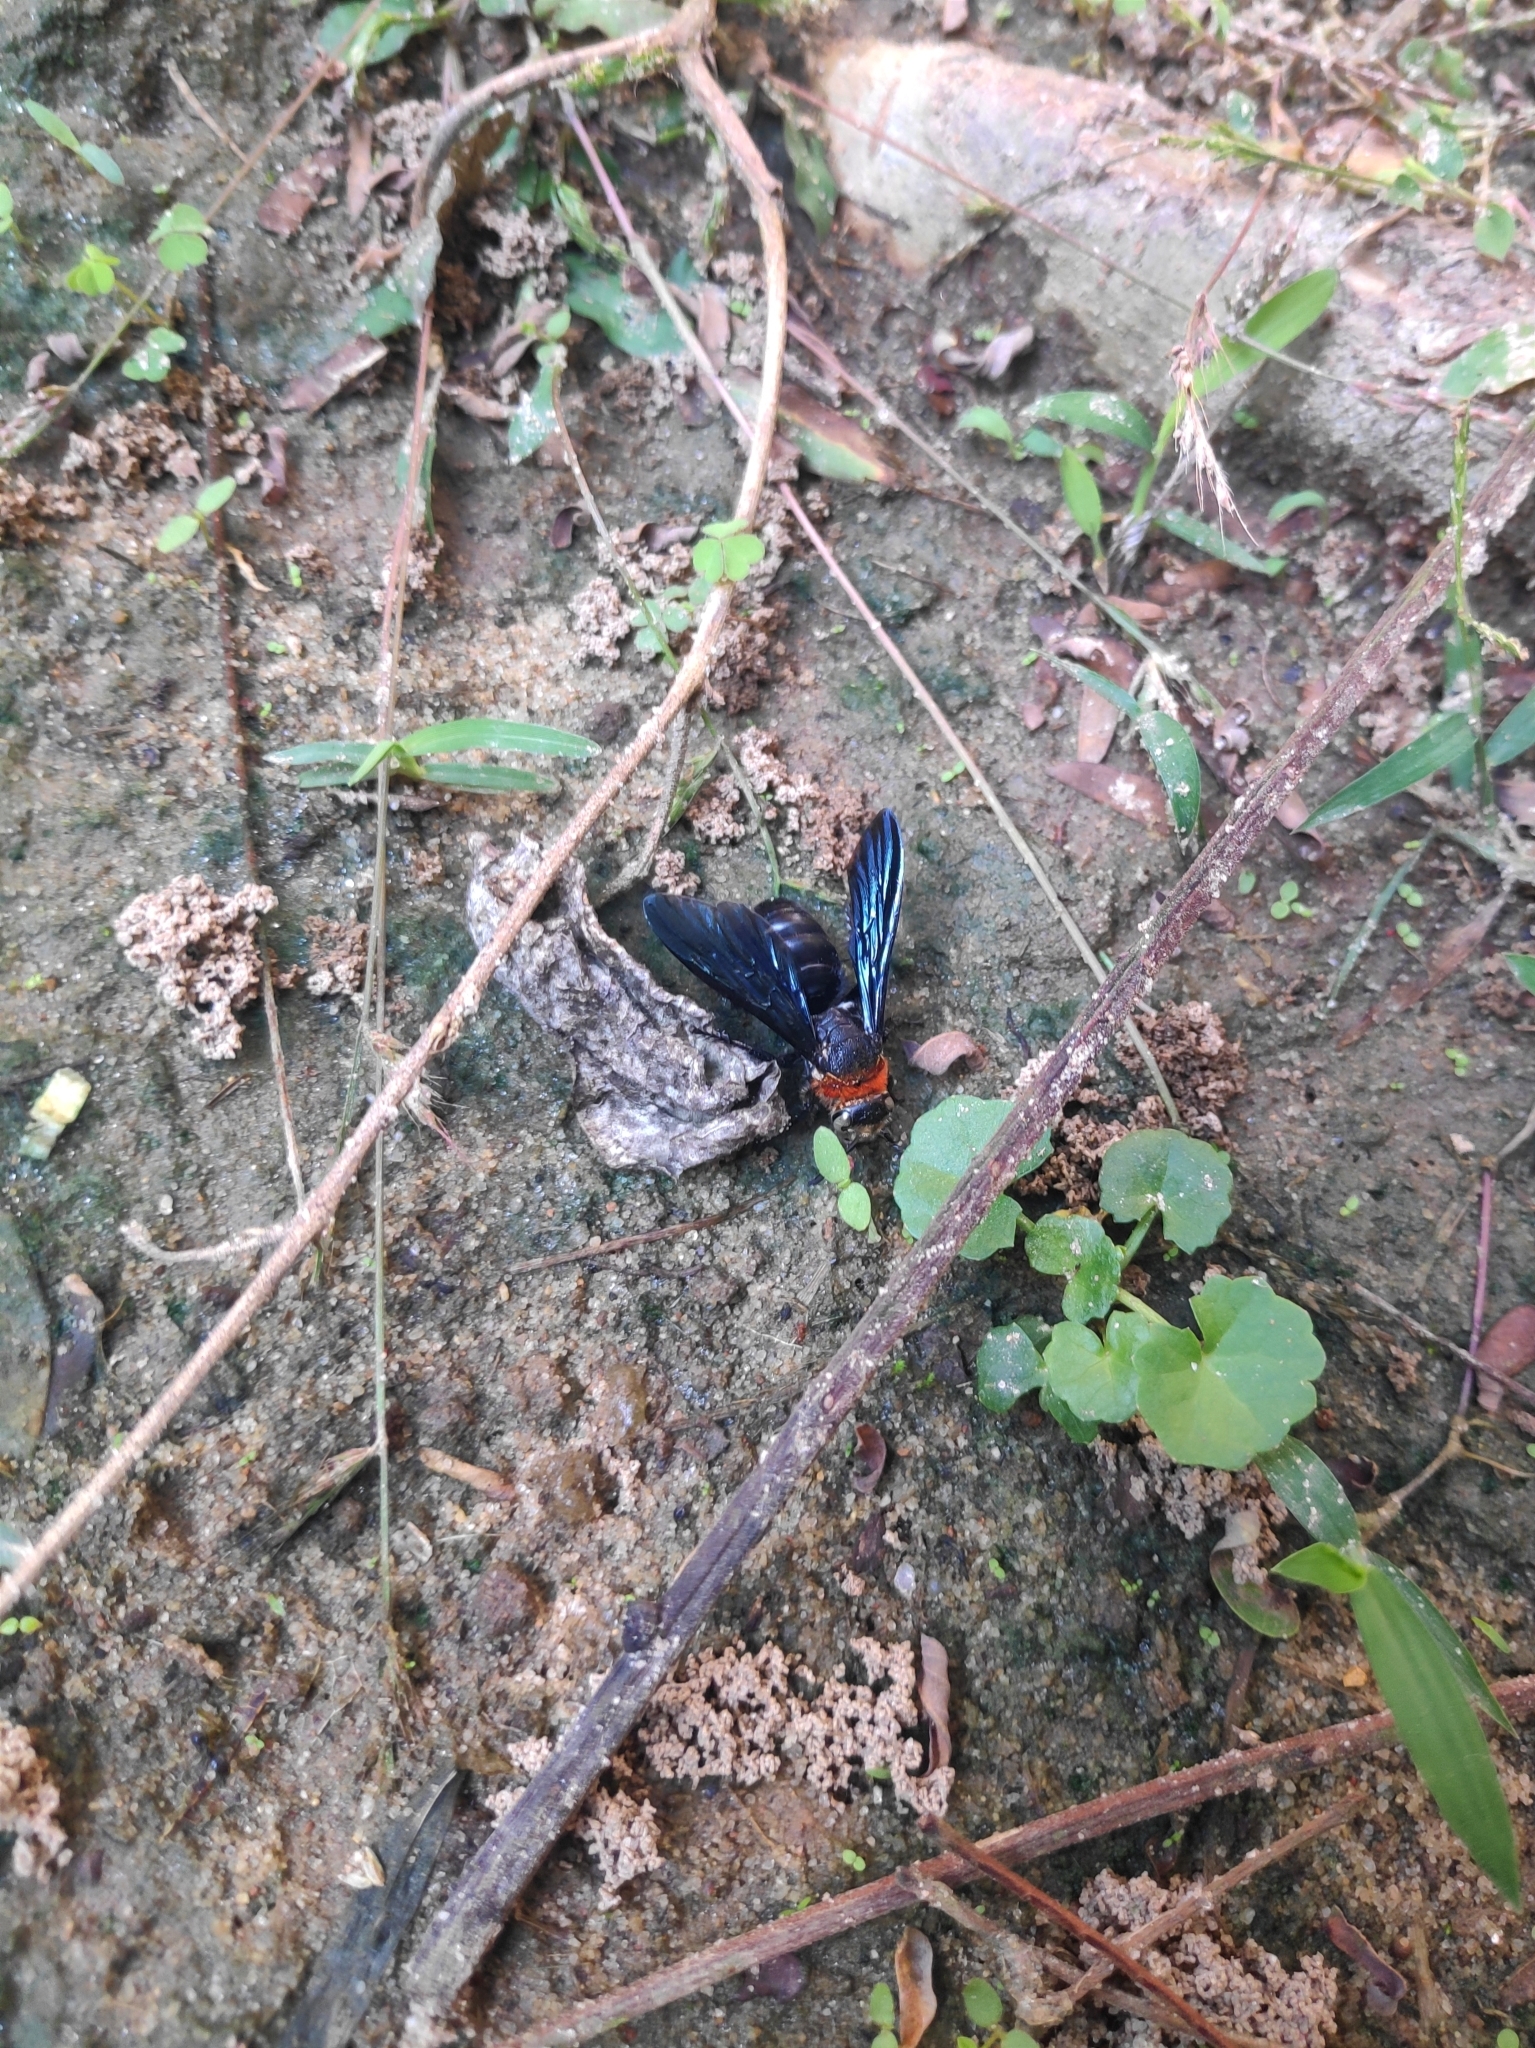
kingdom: Animalia
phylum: Arthropoda
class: Insecta
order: Hymenoptera
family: Scoliidae
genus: Campsomeriella
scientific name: Campsomeriella collaris
